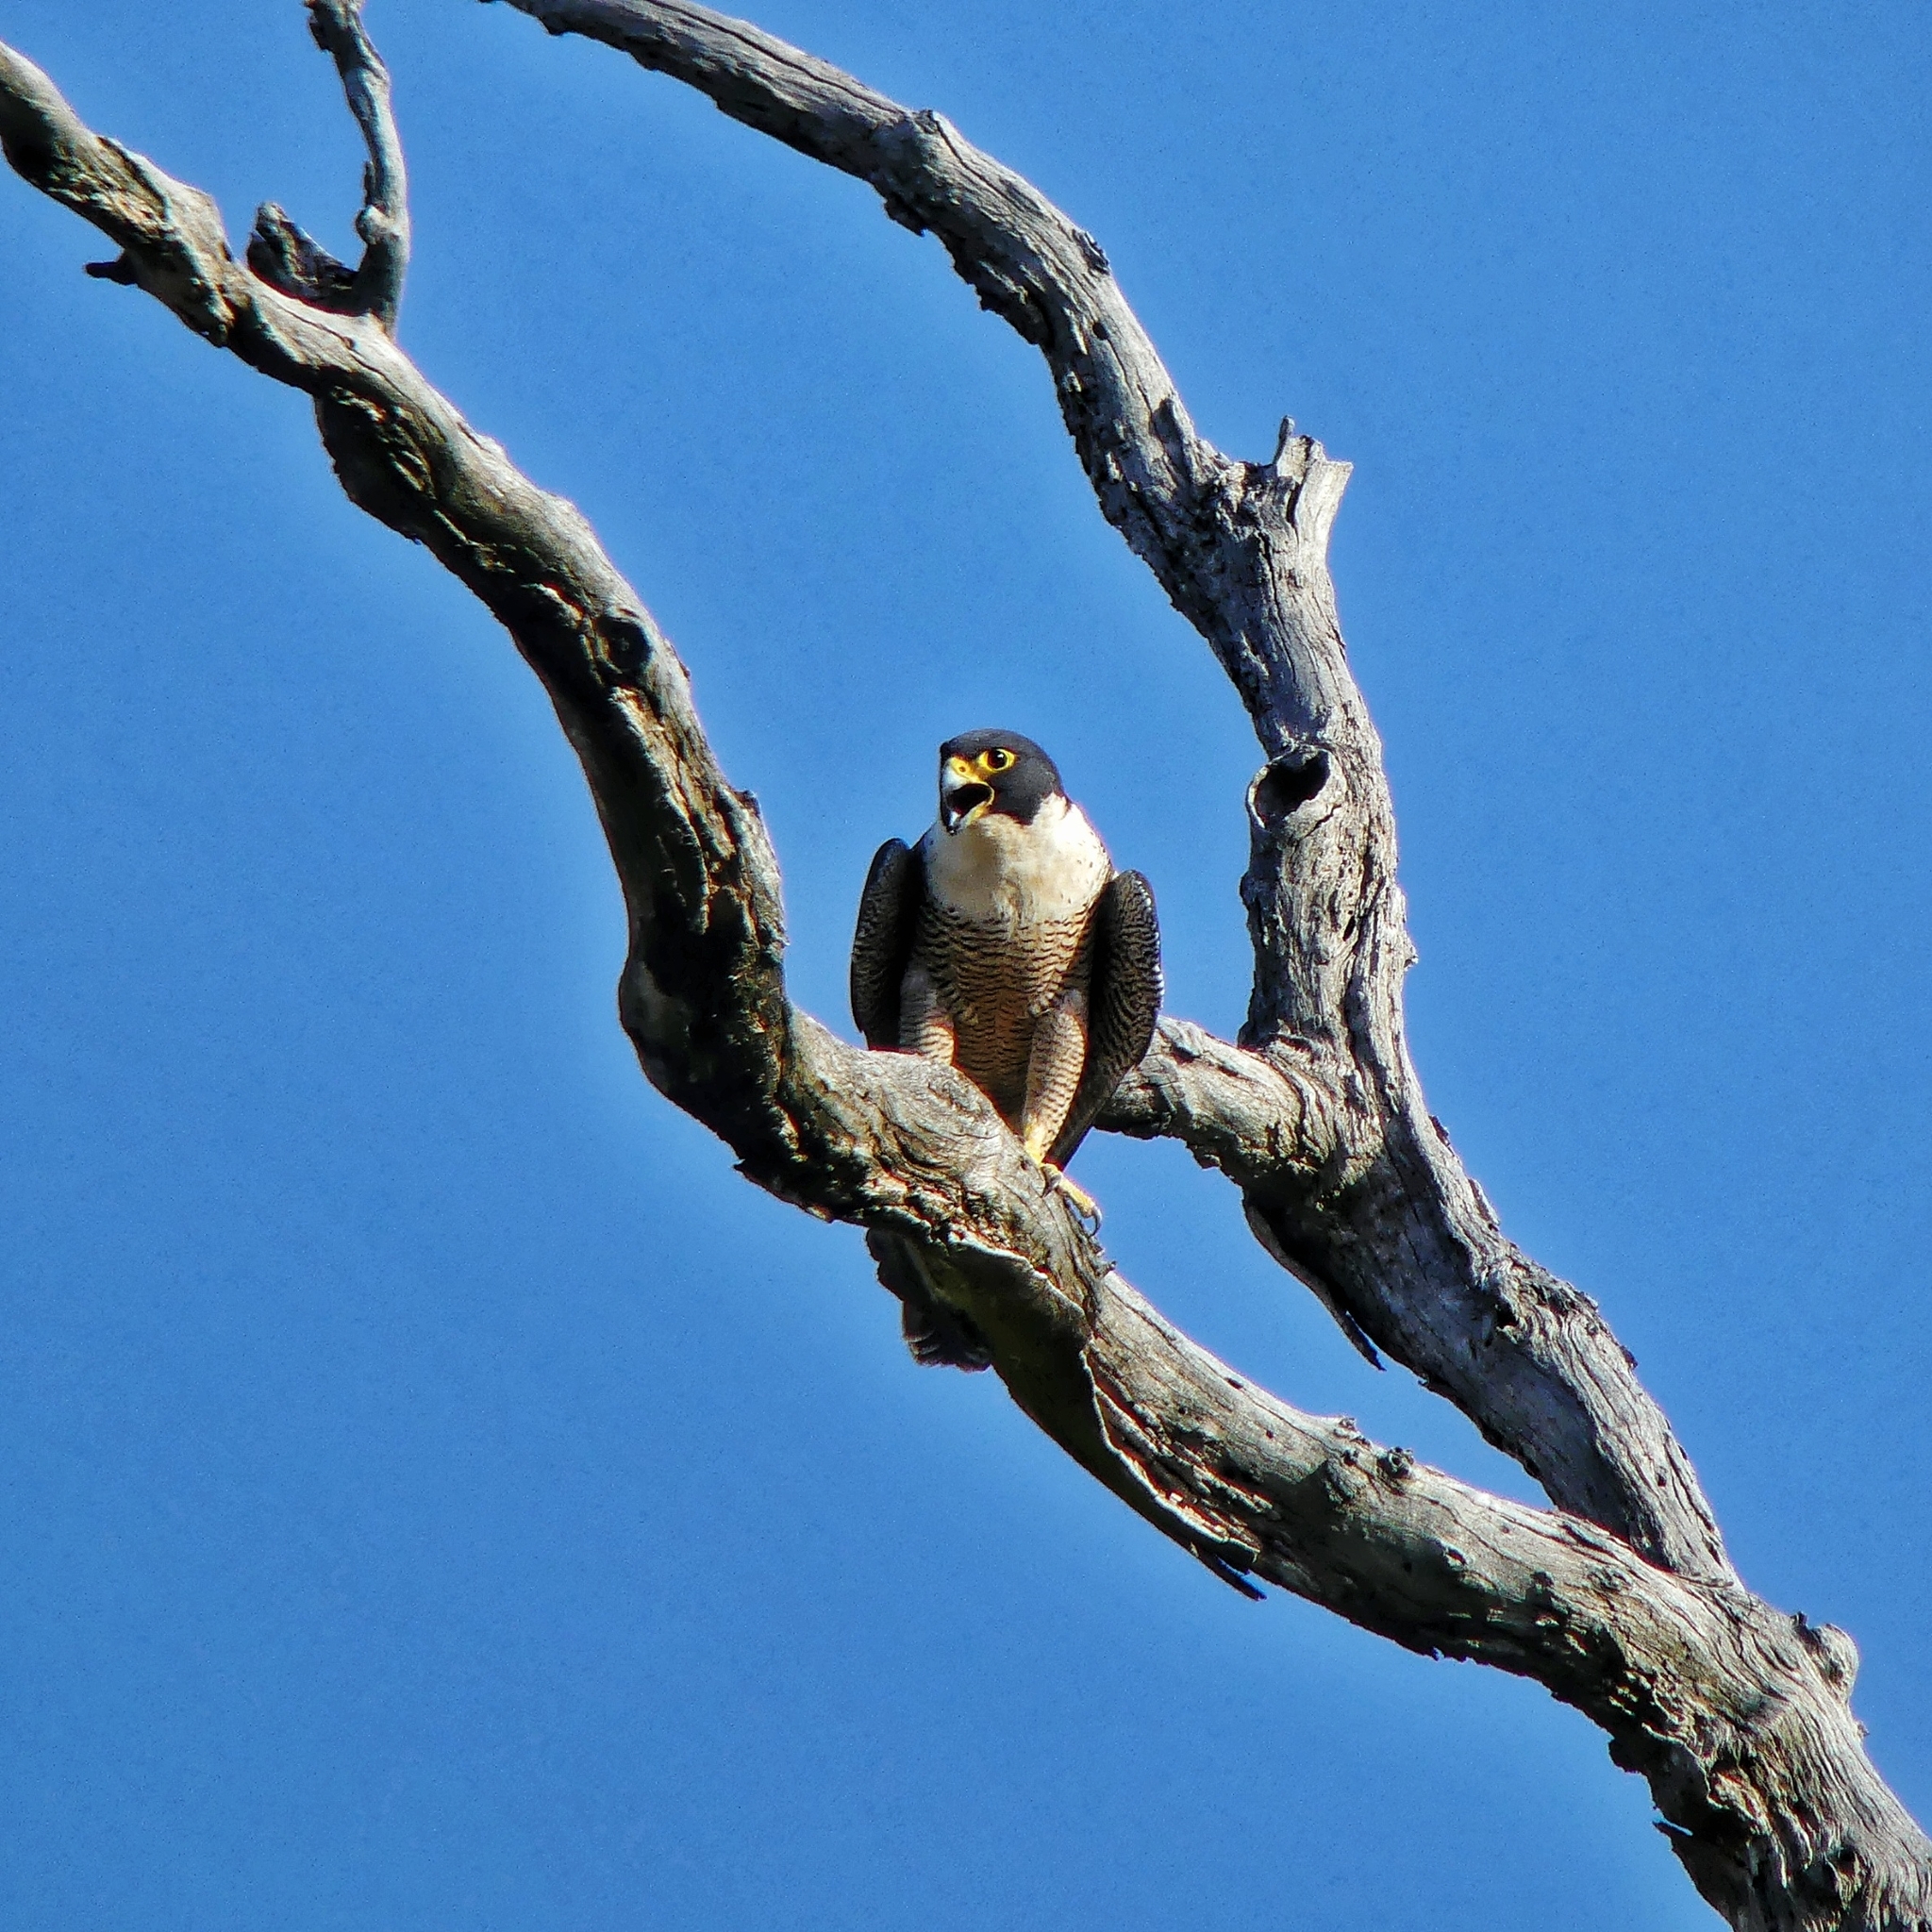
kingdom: Animalia
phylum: Chordata
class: Aves
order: Falconiformes
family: Falconidae
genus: Falco
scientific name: Falco peregrinus
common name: Peregrine falcon
